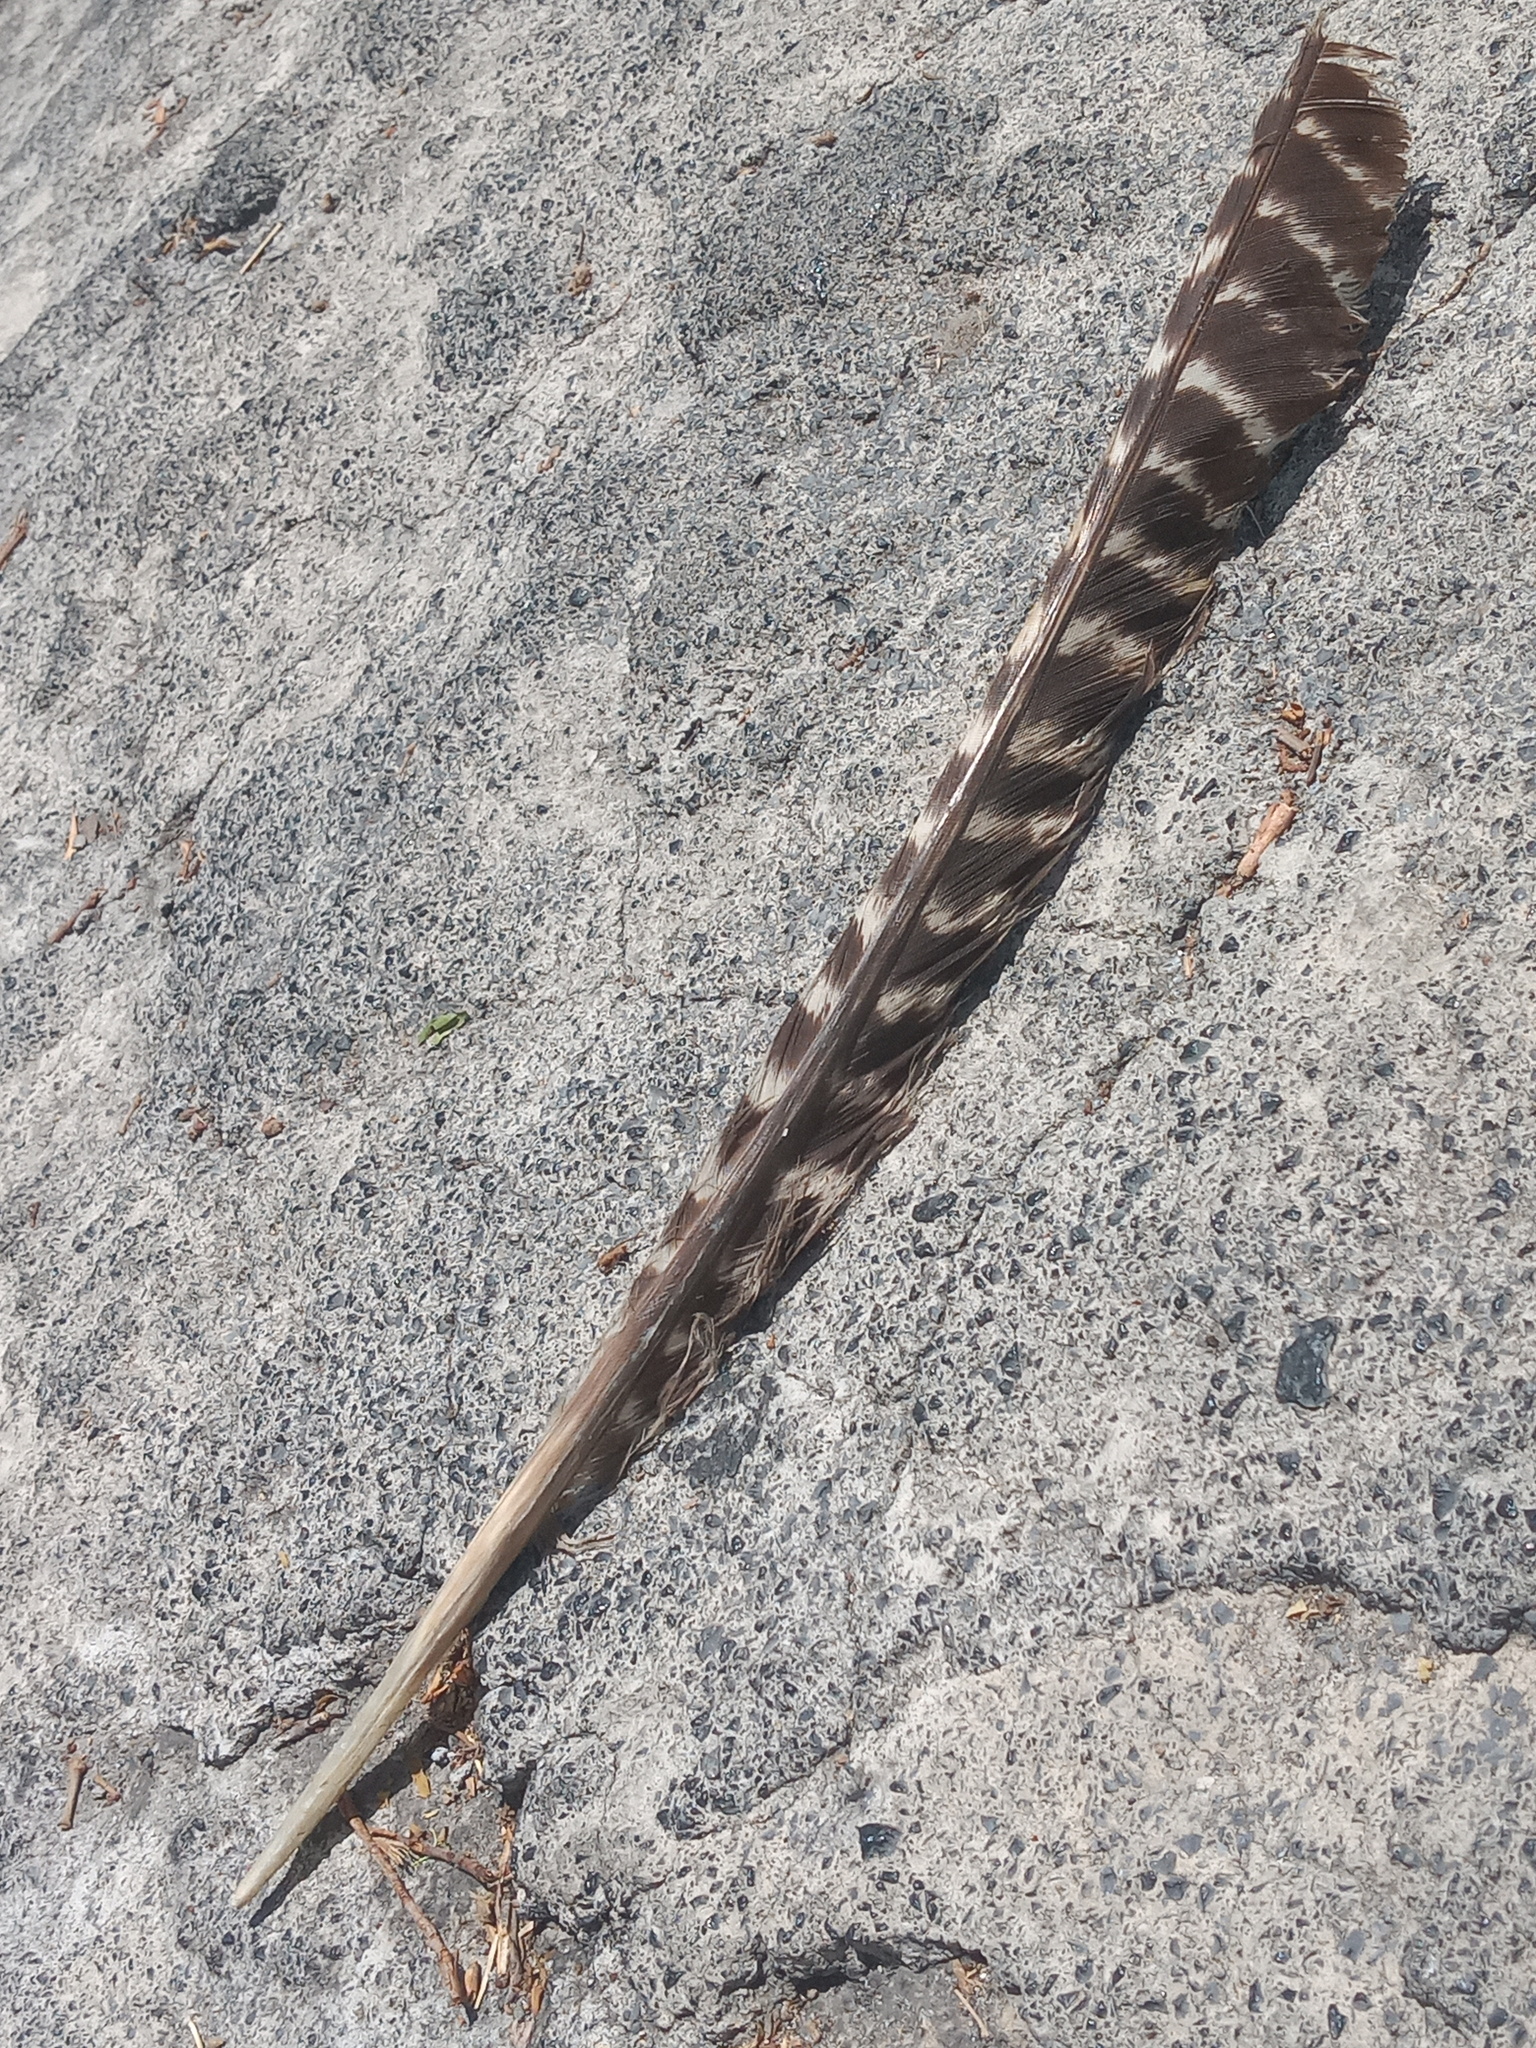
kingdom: Animalia
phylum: Chordata
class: Aves
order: Galliformes
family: Phasianidae
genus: Meleagris
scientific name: Meleagris gallopavo
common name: Wild turkey
